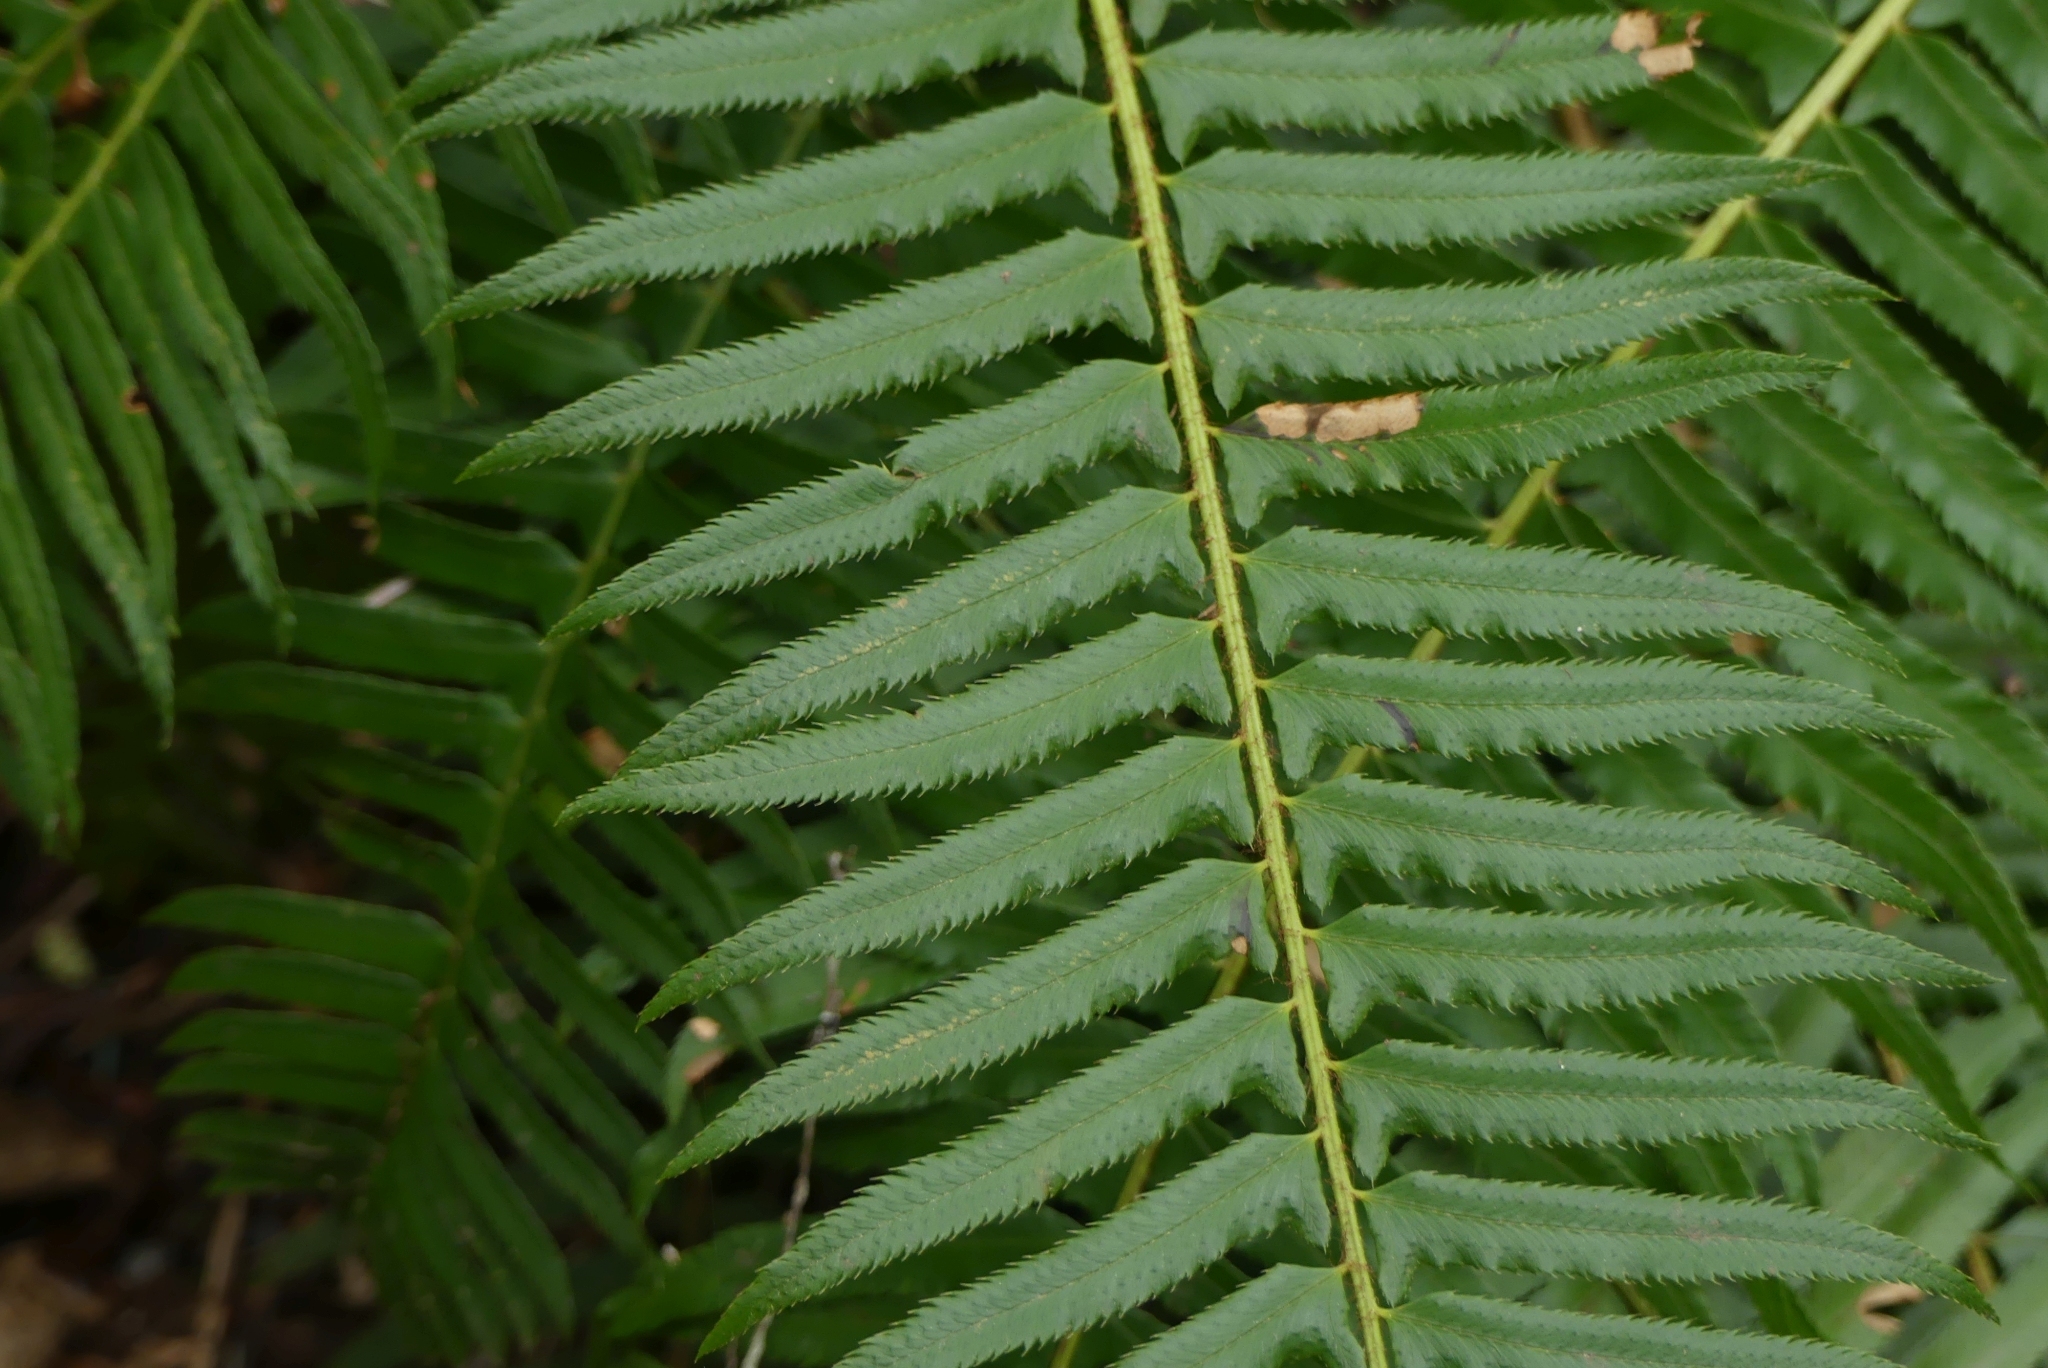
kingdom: Plantae
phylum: Tracheophyta
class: Polypodiopsida
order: Polypodiales
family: Dryopteridaceae
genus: Polystichum
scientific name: Polystichum munitum
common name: Western sword-fern
